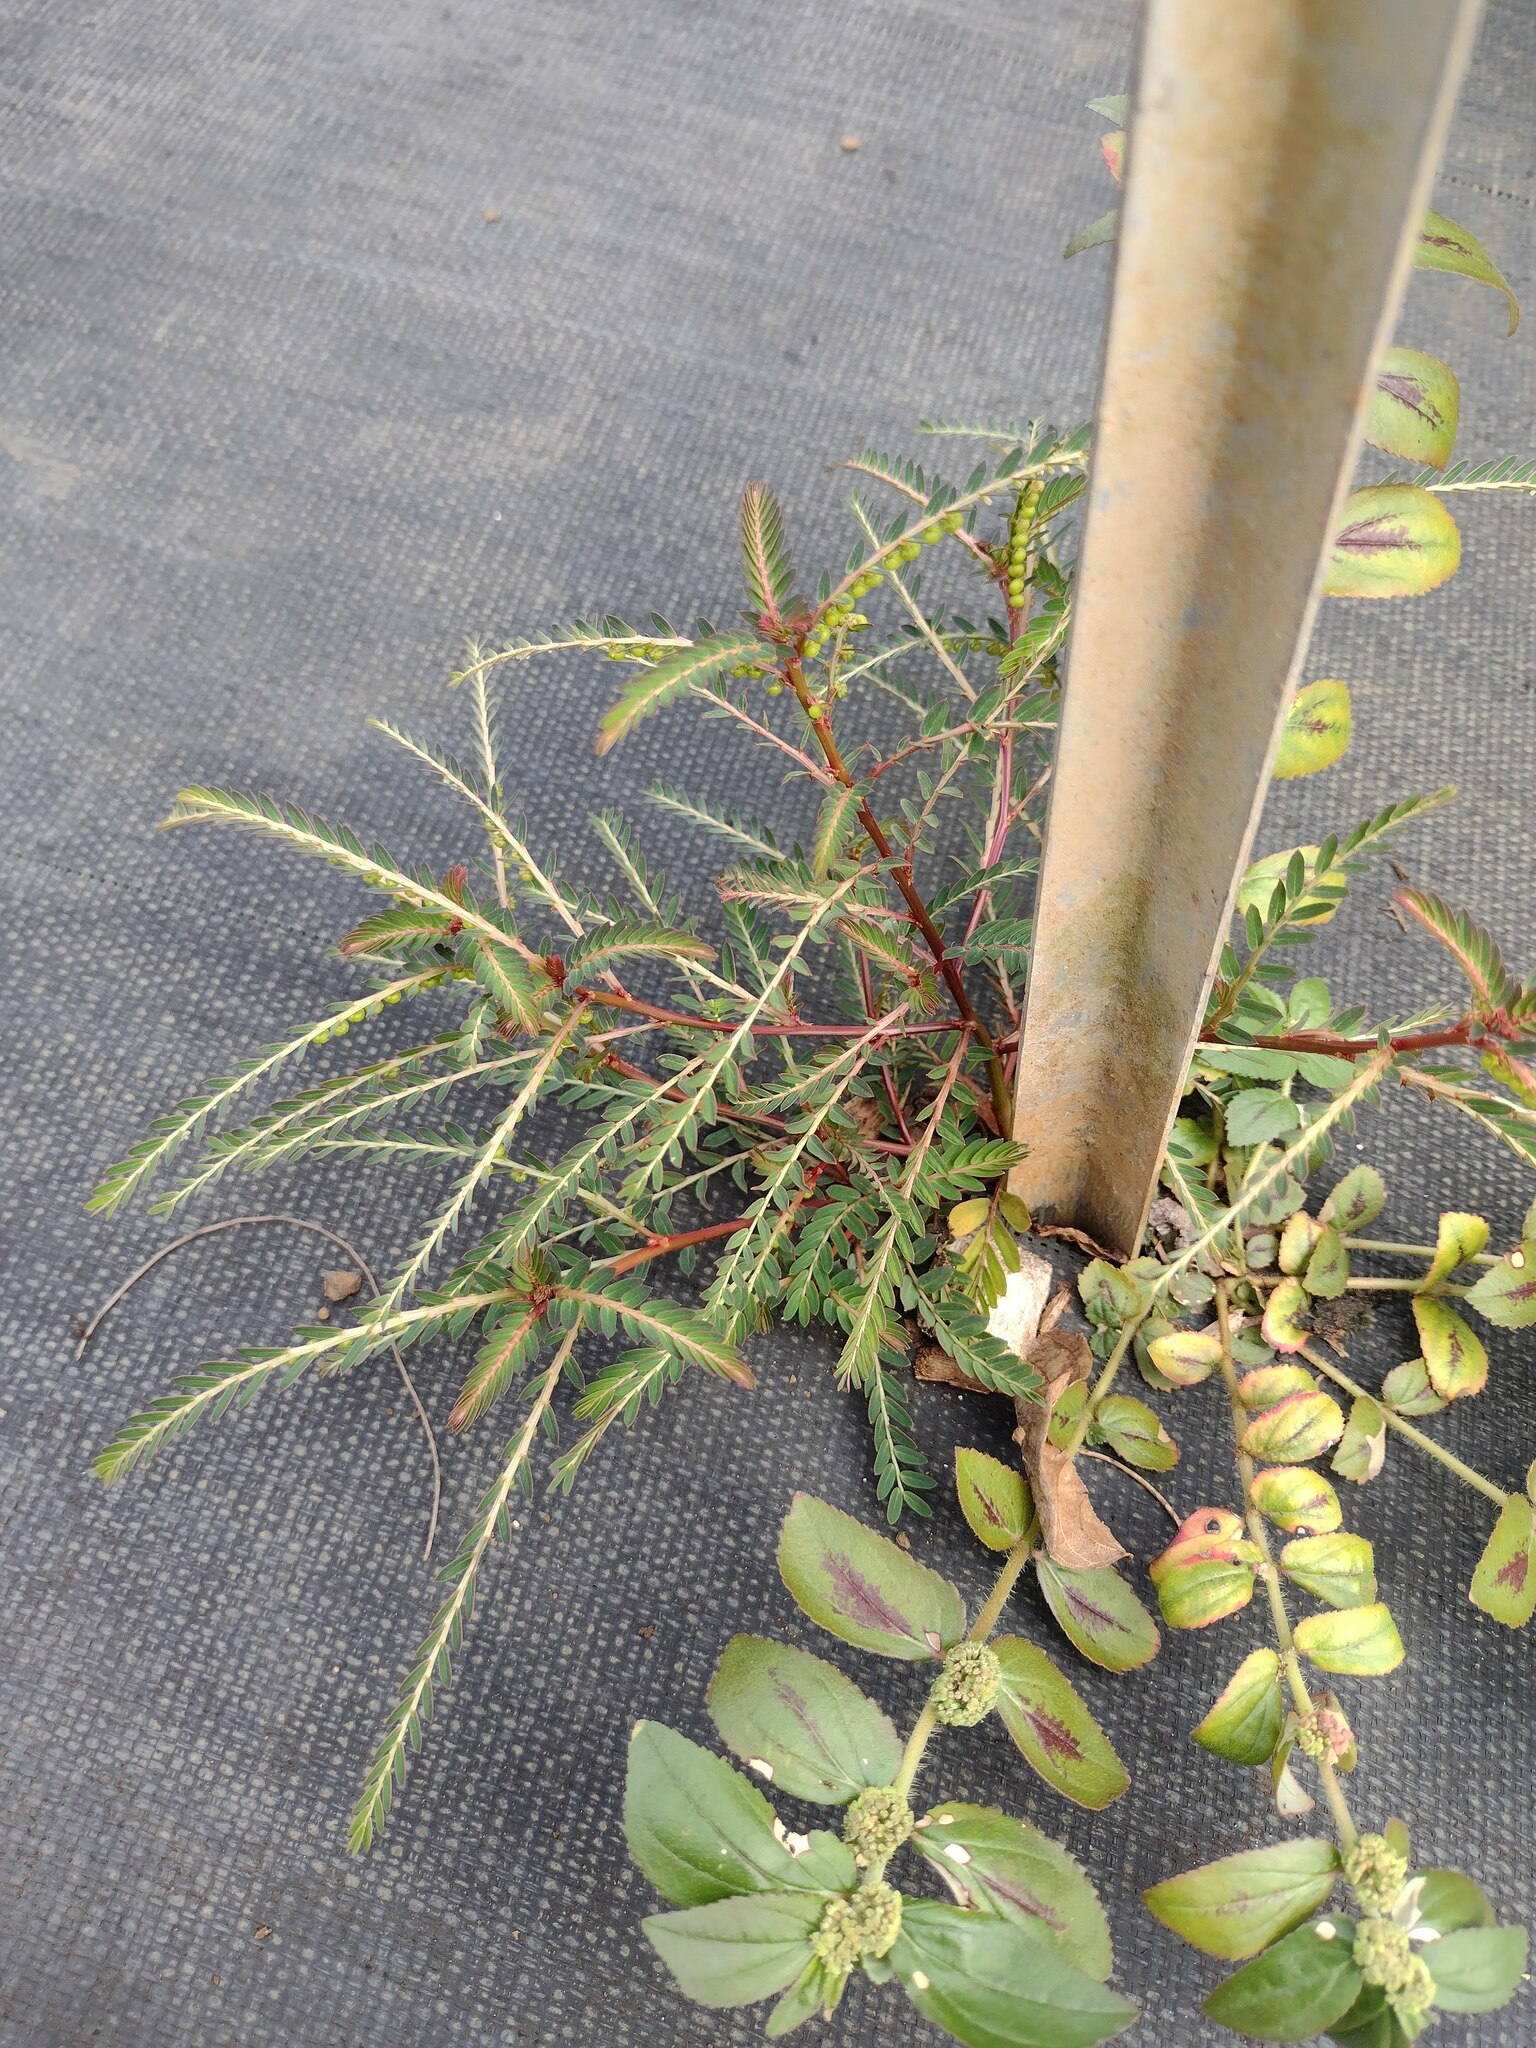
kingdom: Plantae
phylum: Tracheophyta
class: Magnoliopsida
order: Malpighiales
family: Phyllanthaceae
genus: Phyllanthus
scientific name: Phyllanthus urinaria
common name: Chamber bitter
